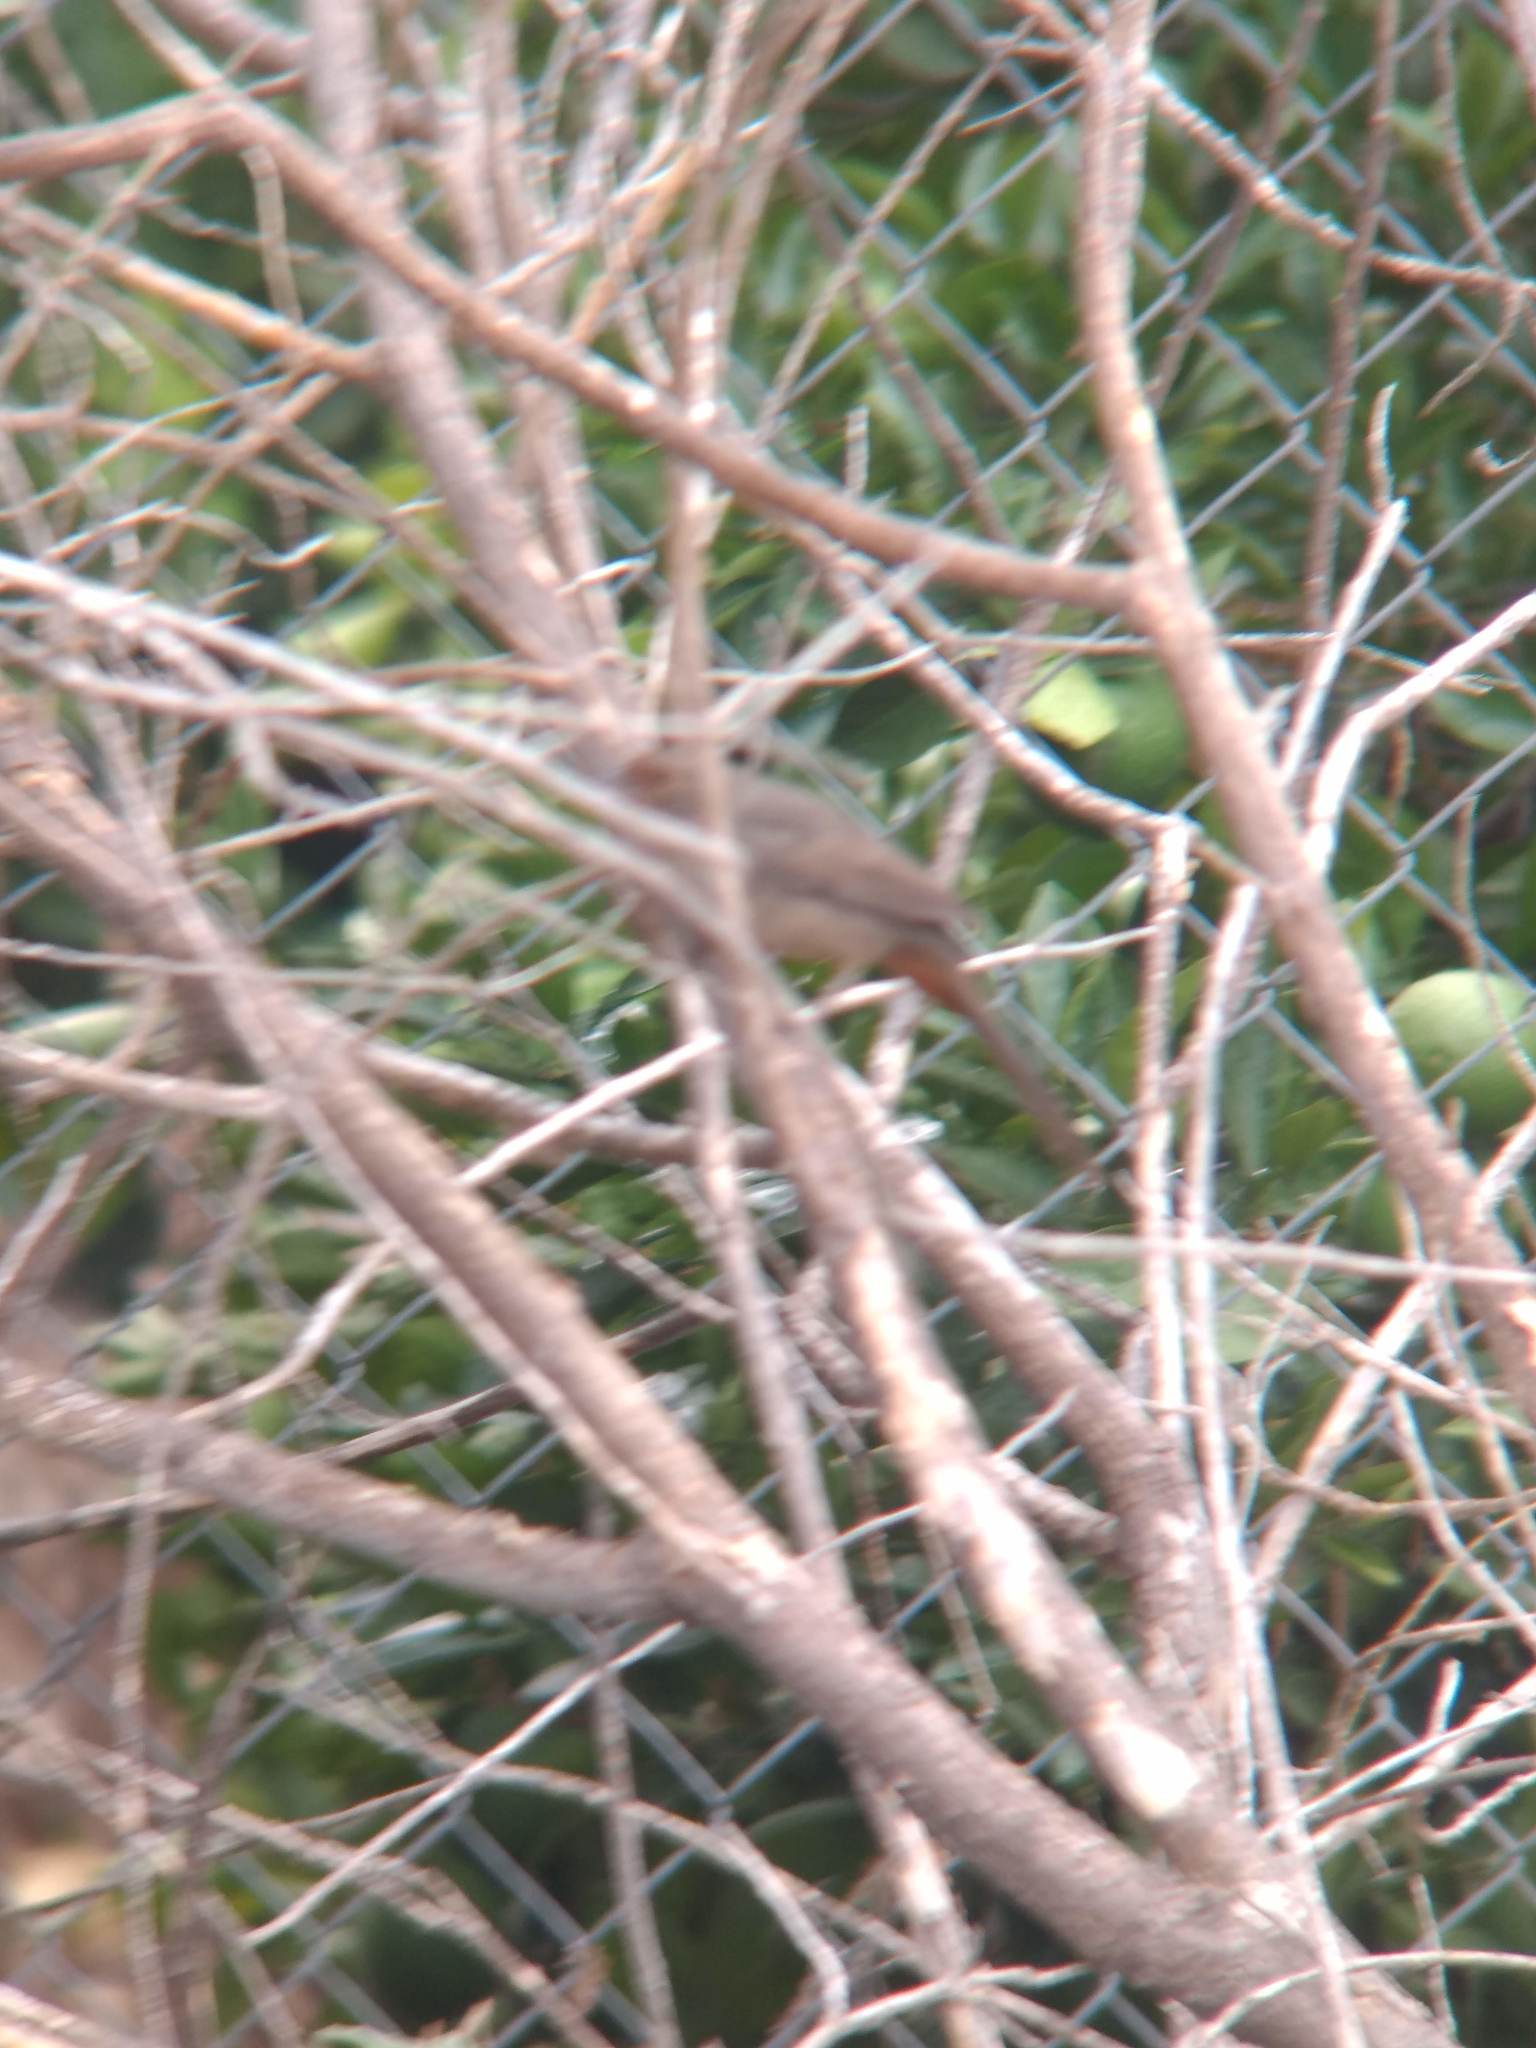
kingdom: Animalia
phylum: Chordata
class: Aves
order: Passeriformes
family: Passerellidae
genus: Melozone
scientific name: Melozone crissalis
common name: California towhee
